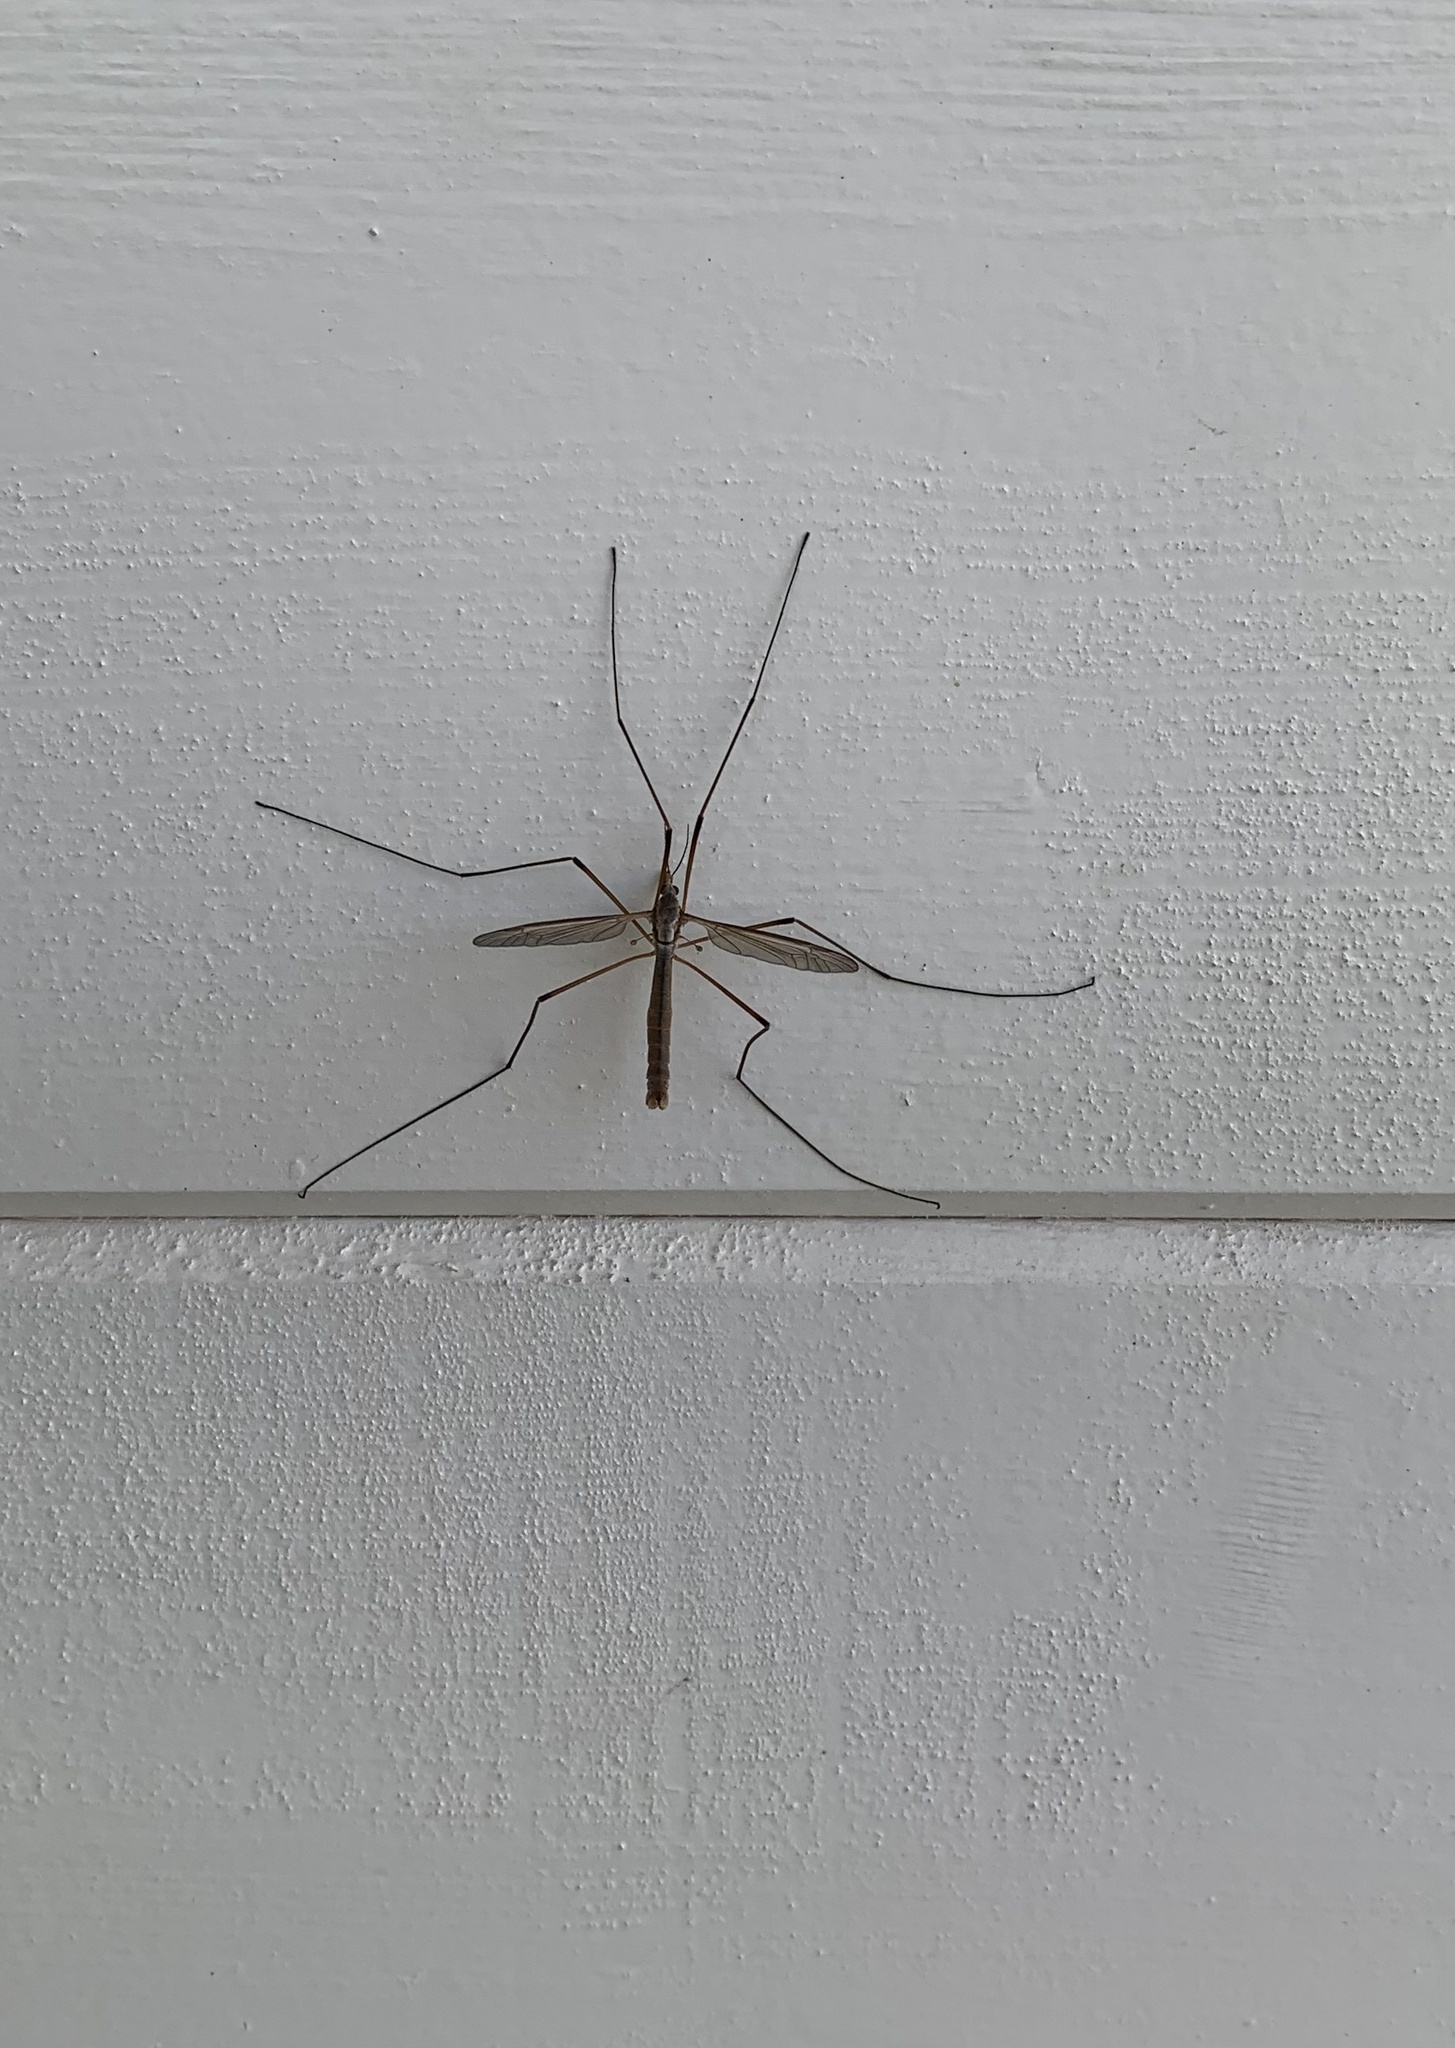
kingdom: Animalia
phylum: Arthropoda
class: Insecta
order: Diptera
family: Tipulidae
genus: Tipula
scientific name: Tipula paludosa
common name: European cranefly
